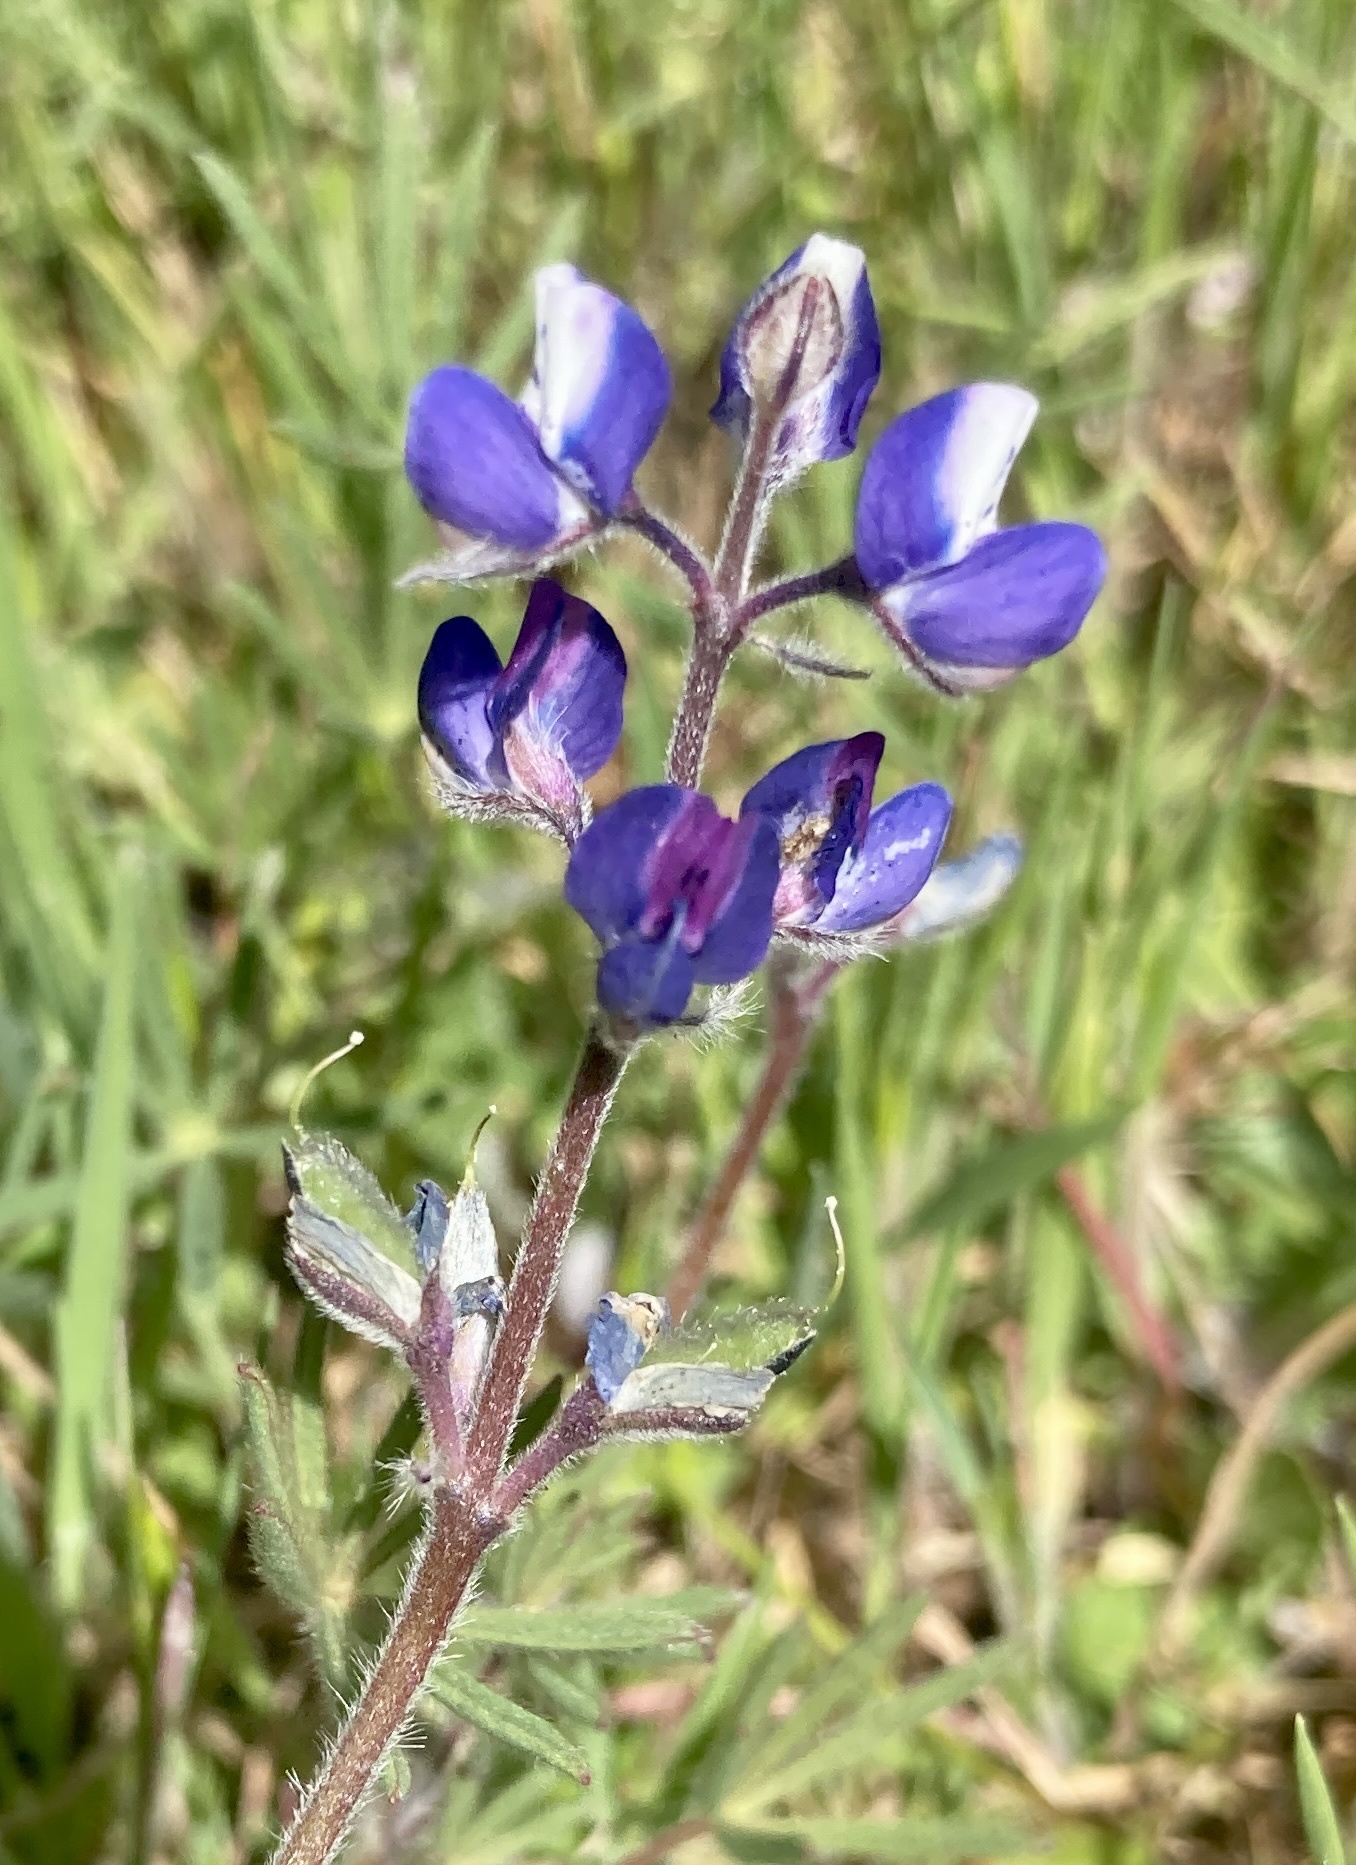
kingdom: Plantae
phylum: Tracheophyta
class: Magnoliopsida
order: Fabales
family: Fabaceae
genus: Lupinus
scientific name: Lupinus bicolor
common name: Miniature lupine
